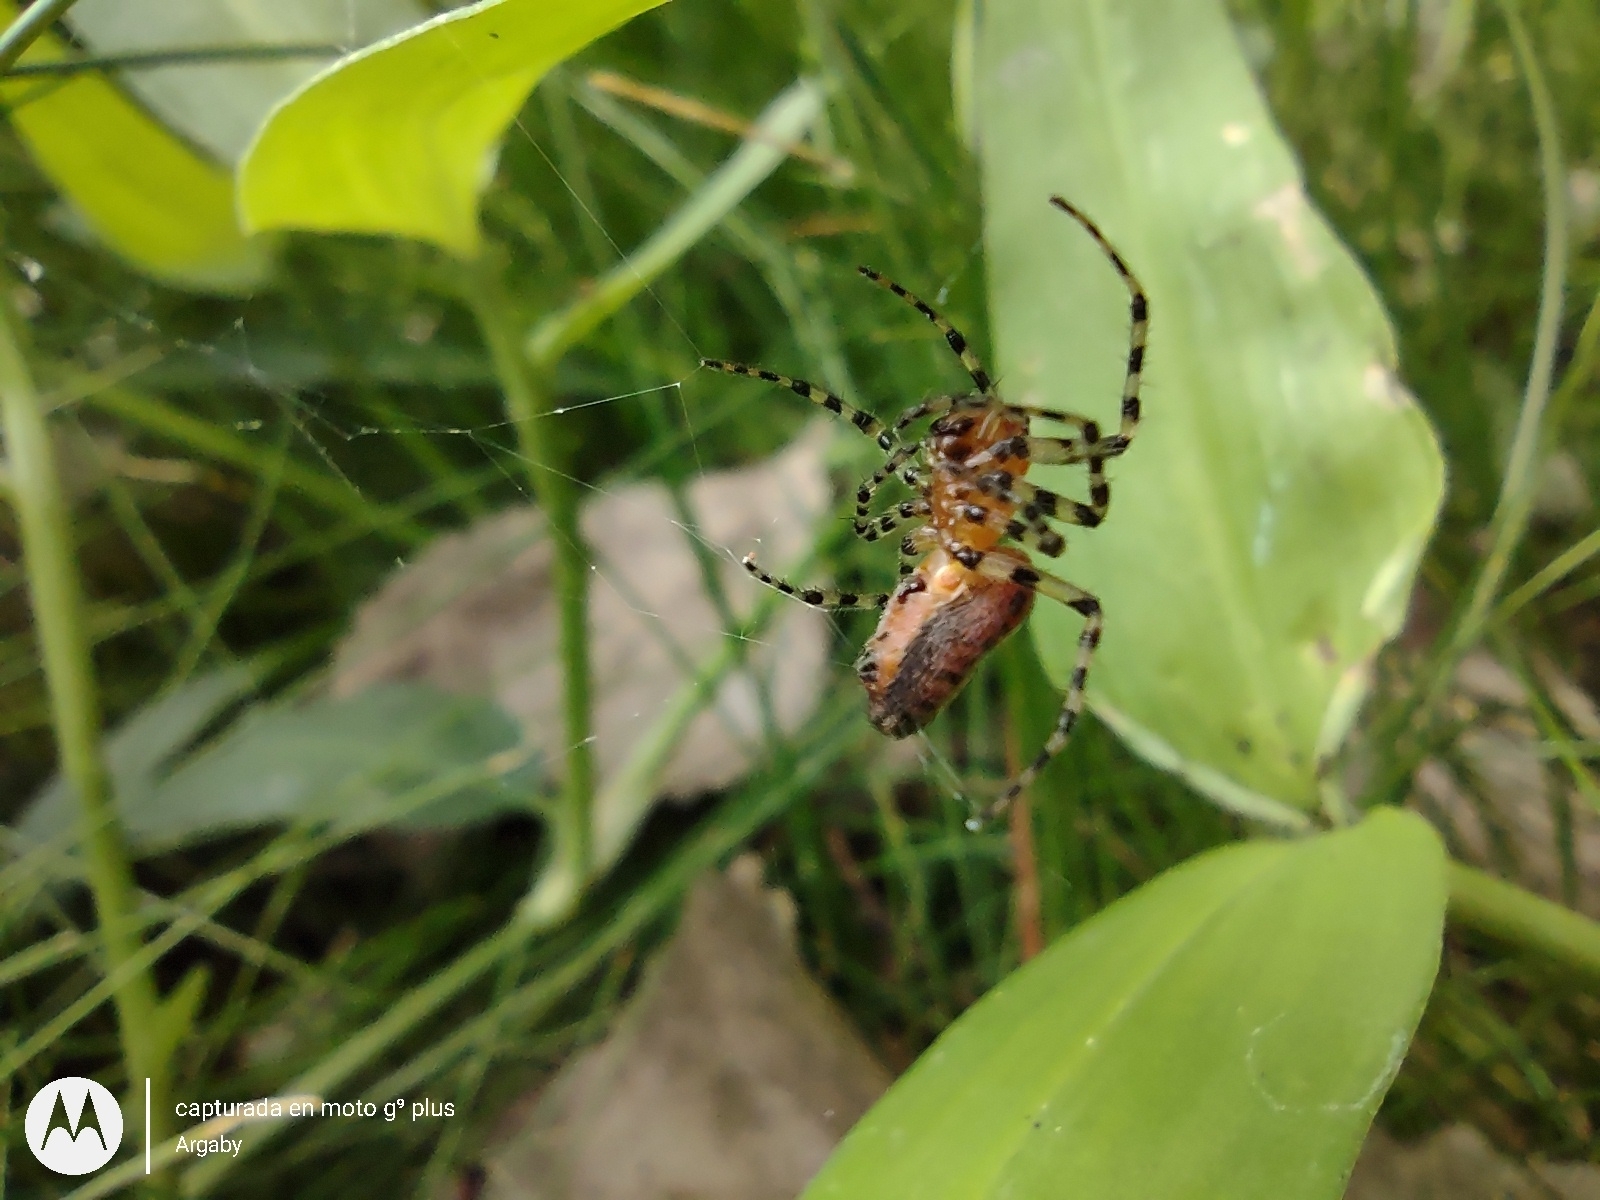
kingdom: Animalia
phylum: Arthropoda
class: Arachnida
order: Araneae
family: Araneidae
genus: Alpaida
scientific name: Alpaida gallardoi
